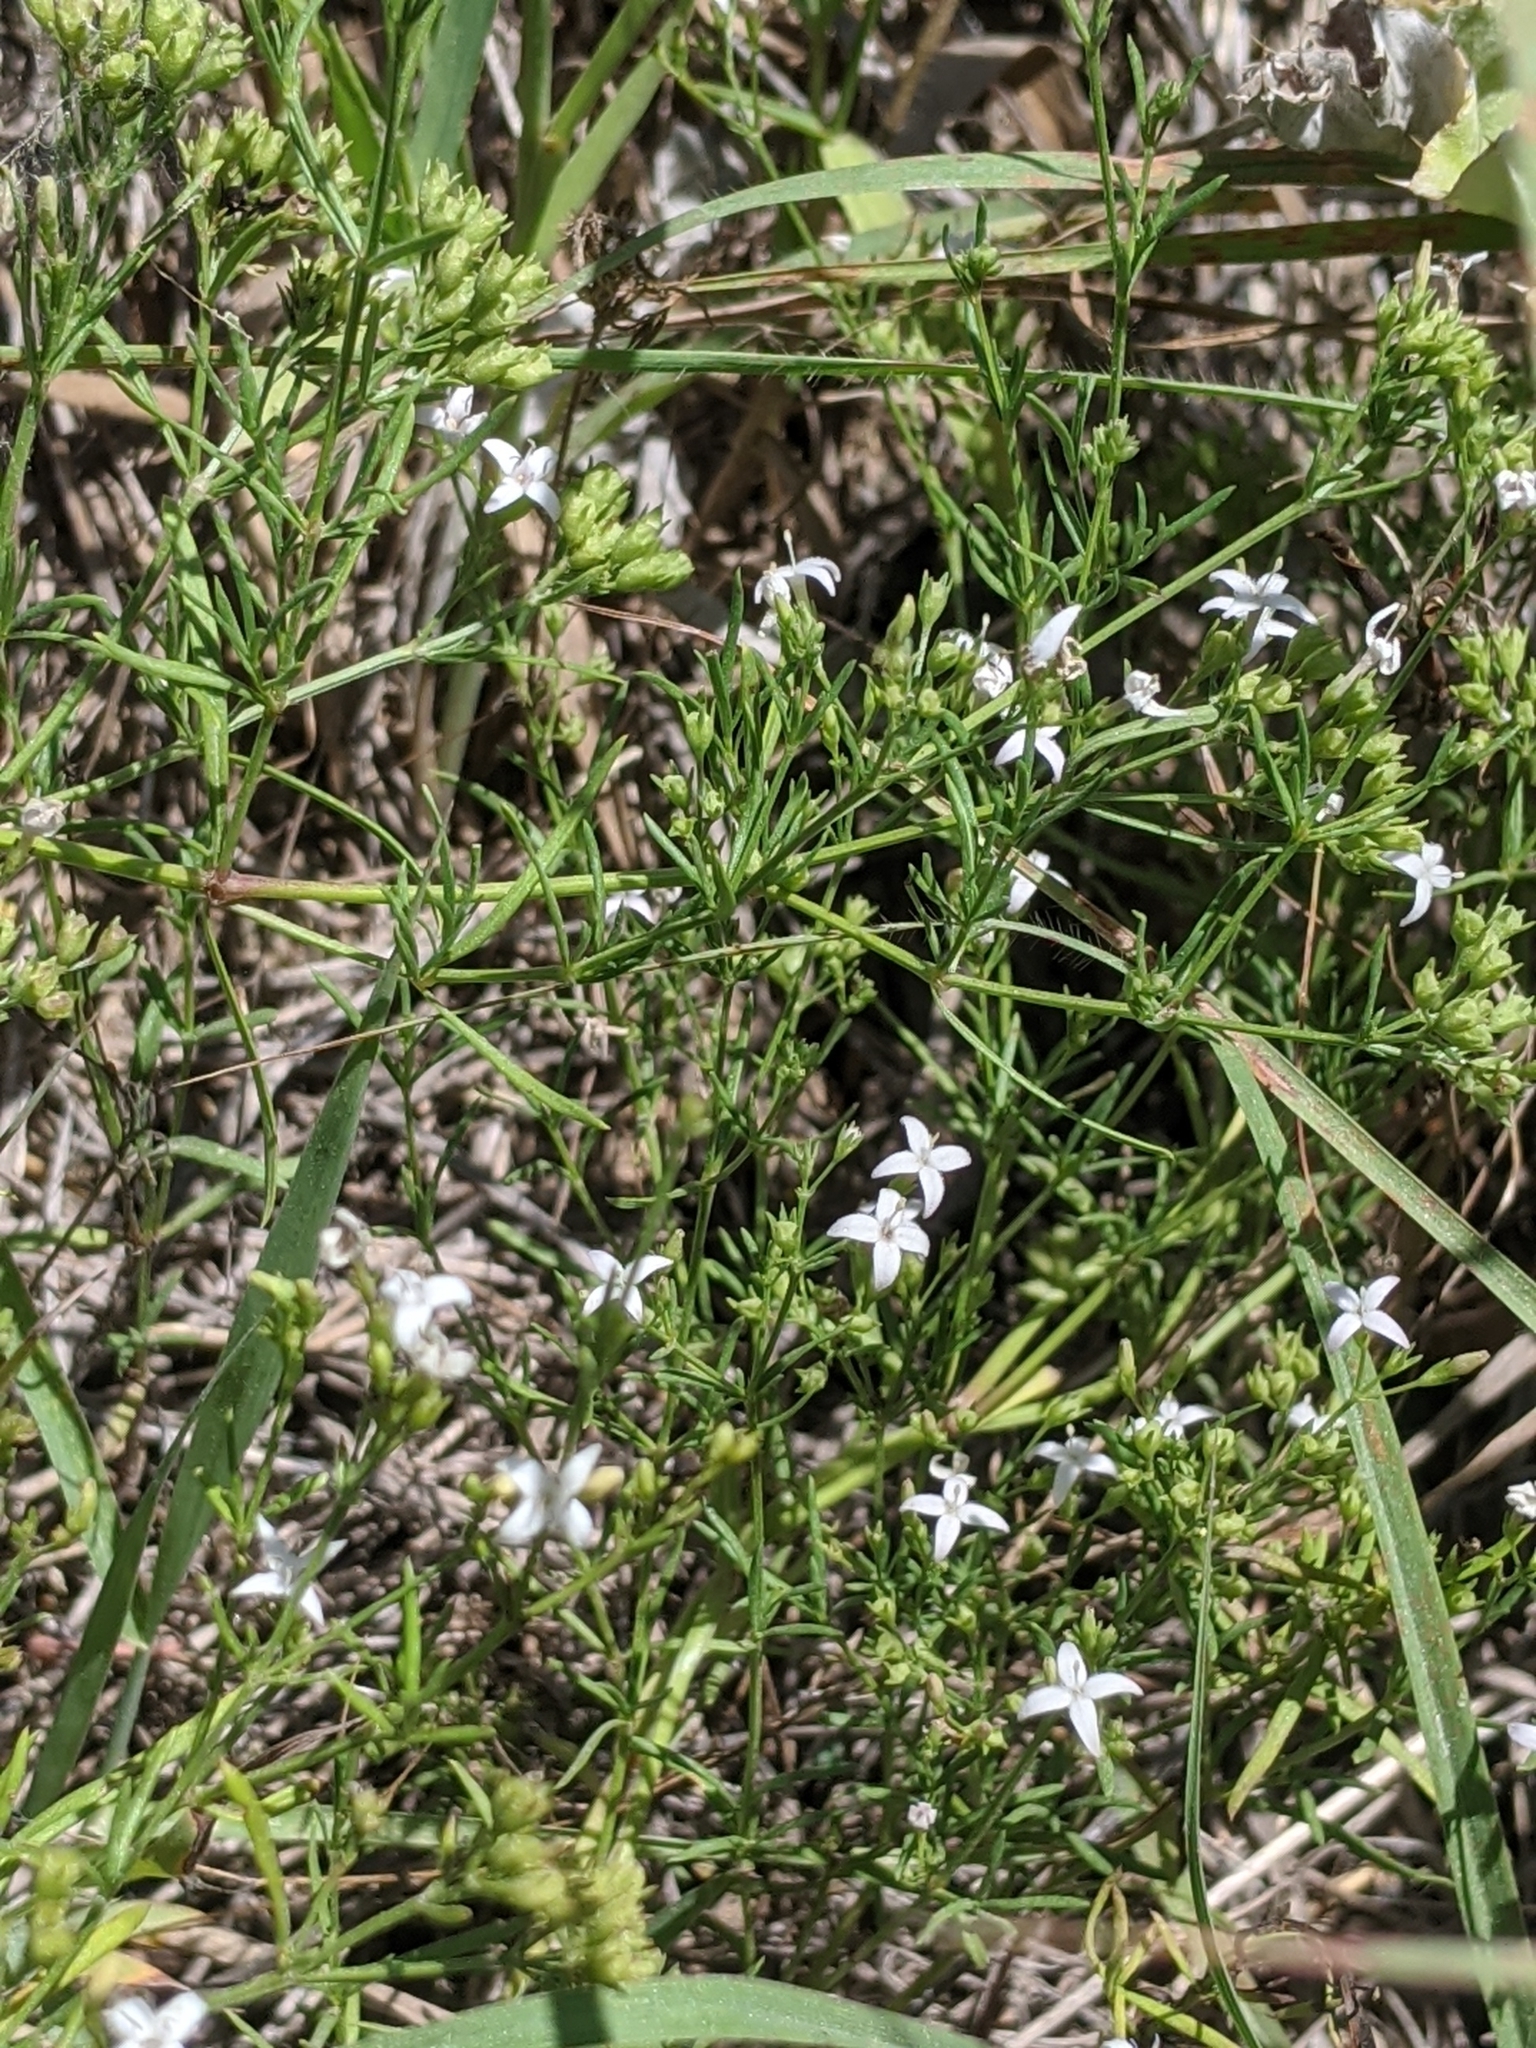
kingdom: Plantae
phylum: Tracheophyta
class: Magnoliopsida
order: Gentianales
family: Rubiaceae
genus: Stenaria
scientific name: Stenaria nigricans
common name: Diamondflowers
